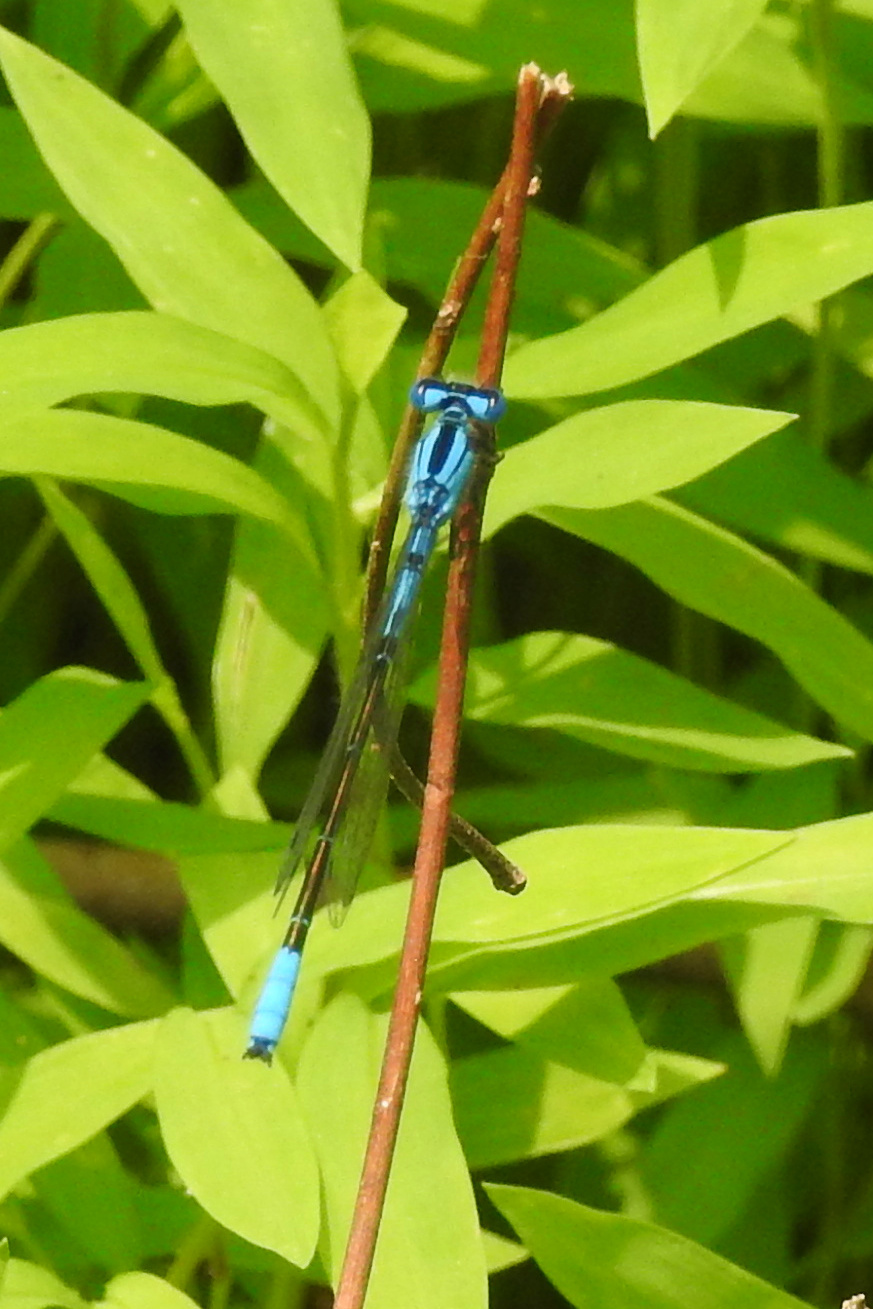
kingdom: Animalia
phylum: Arthropoda
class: Insecta
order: Odonata
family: Coenagrionidae
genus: Enallagma
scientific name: Enallagma aspersum
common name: Azure bluet
